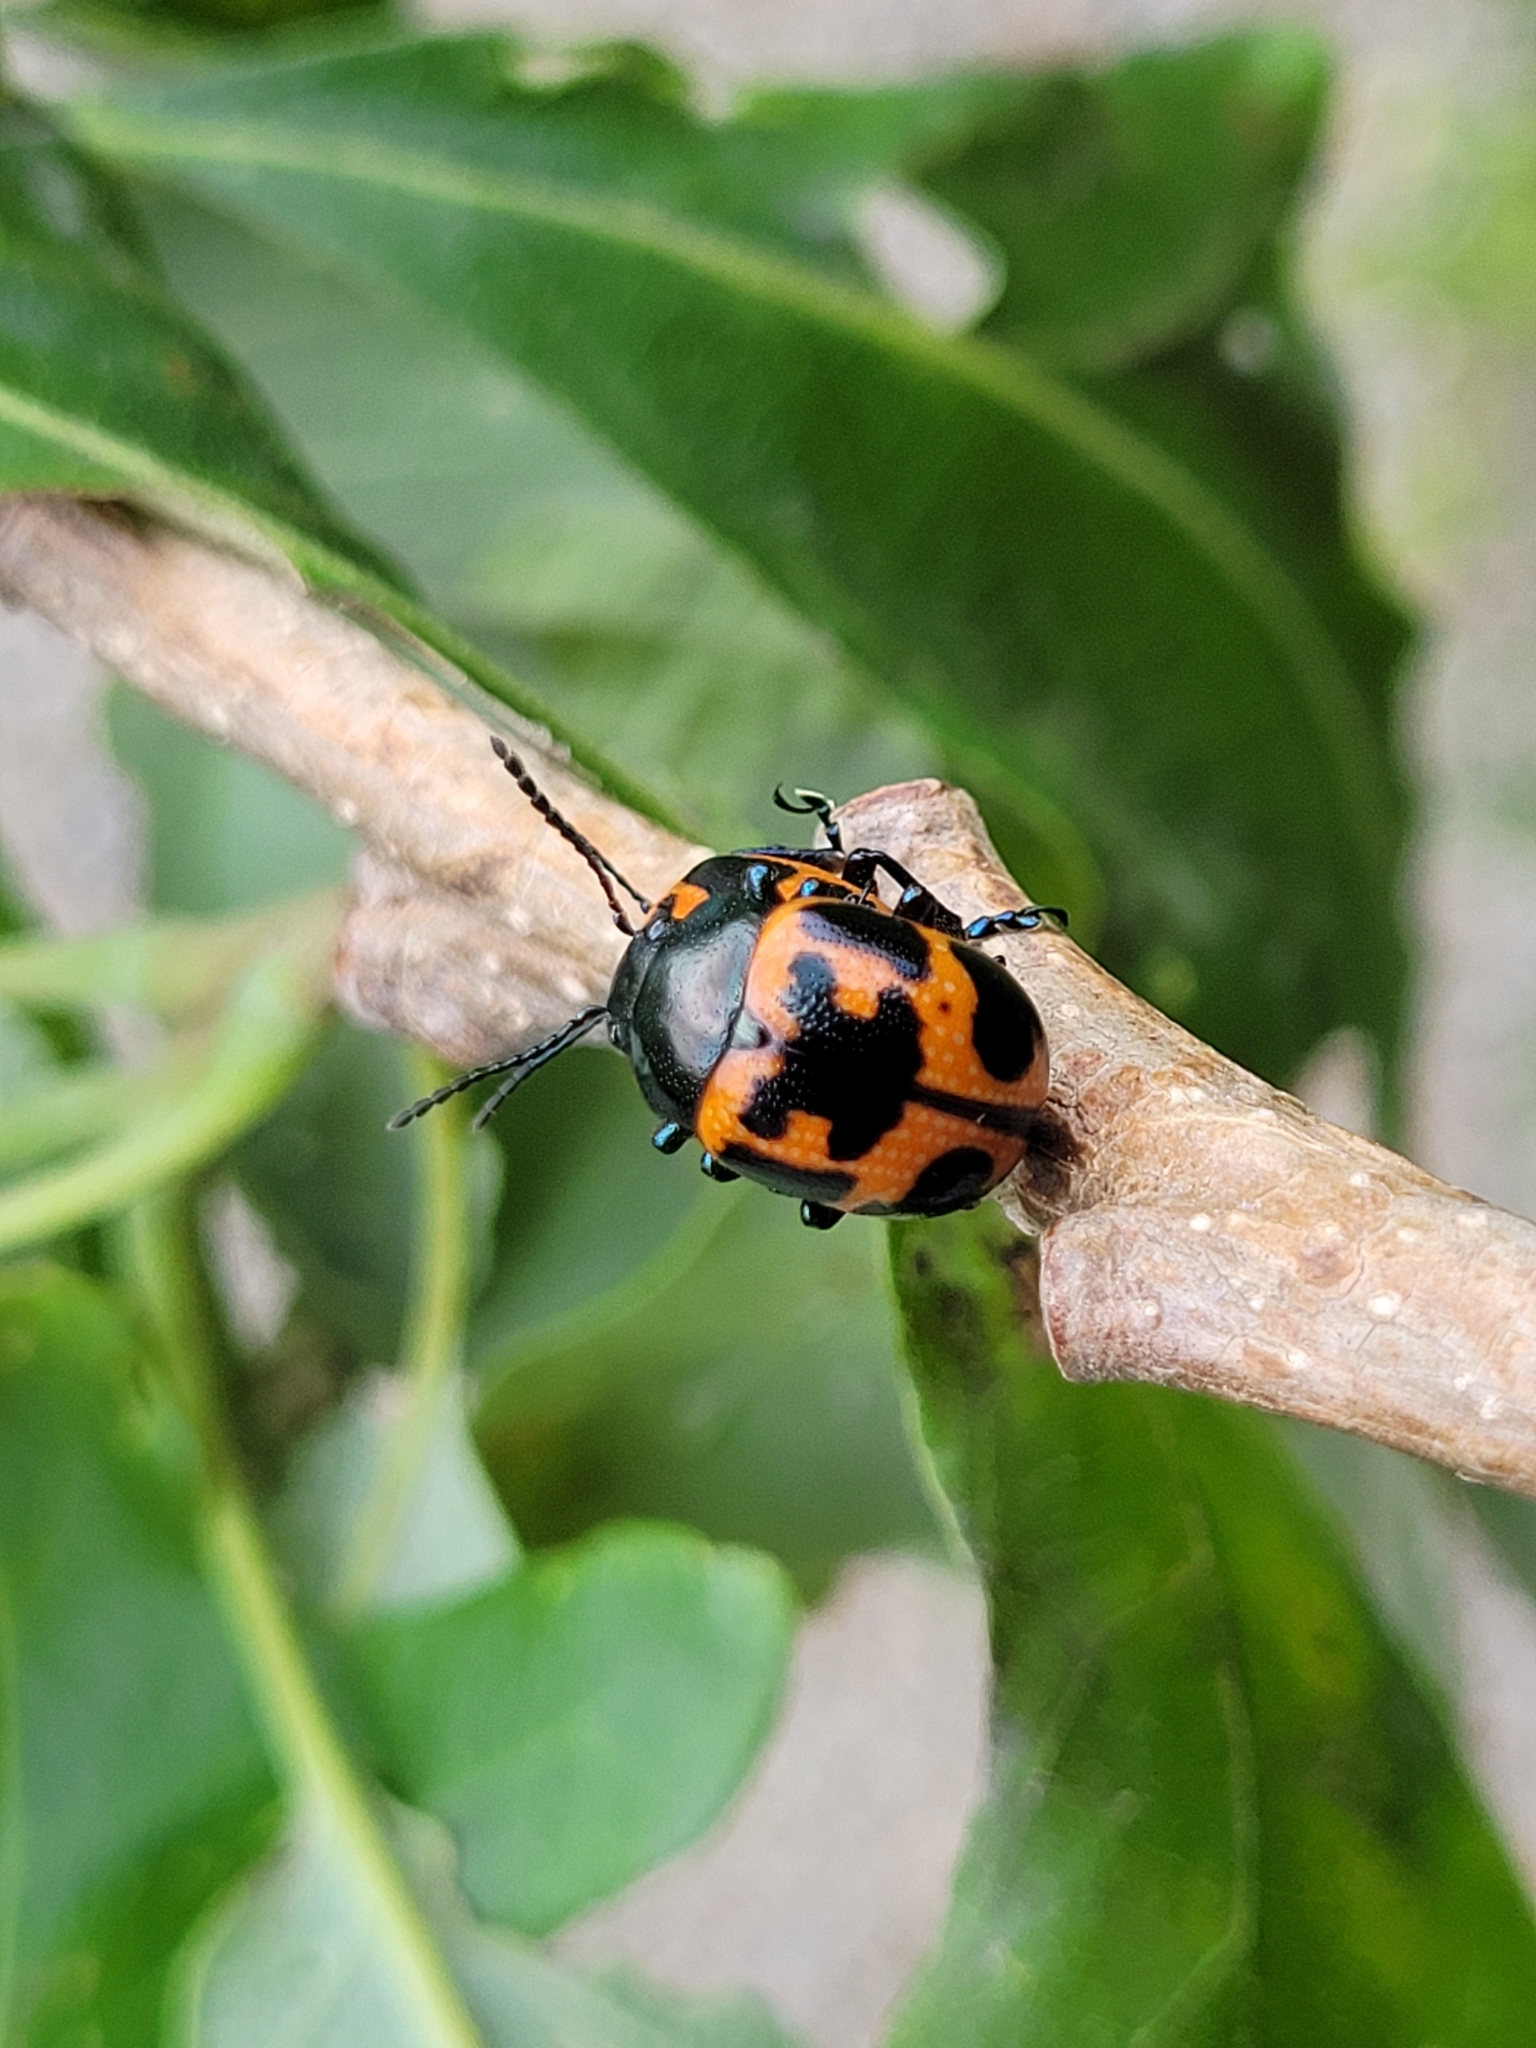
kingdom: Animalia
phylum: Arthropoda
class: Insecta
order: Coleoptera
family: Chrysomelidae
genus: Labidomera
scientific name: Labidomera clivicollis
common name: Swamp milkweed leaf beetle
